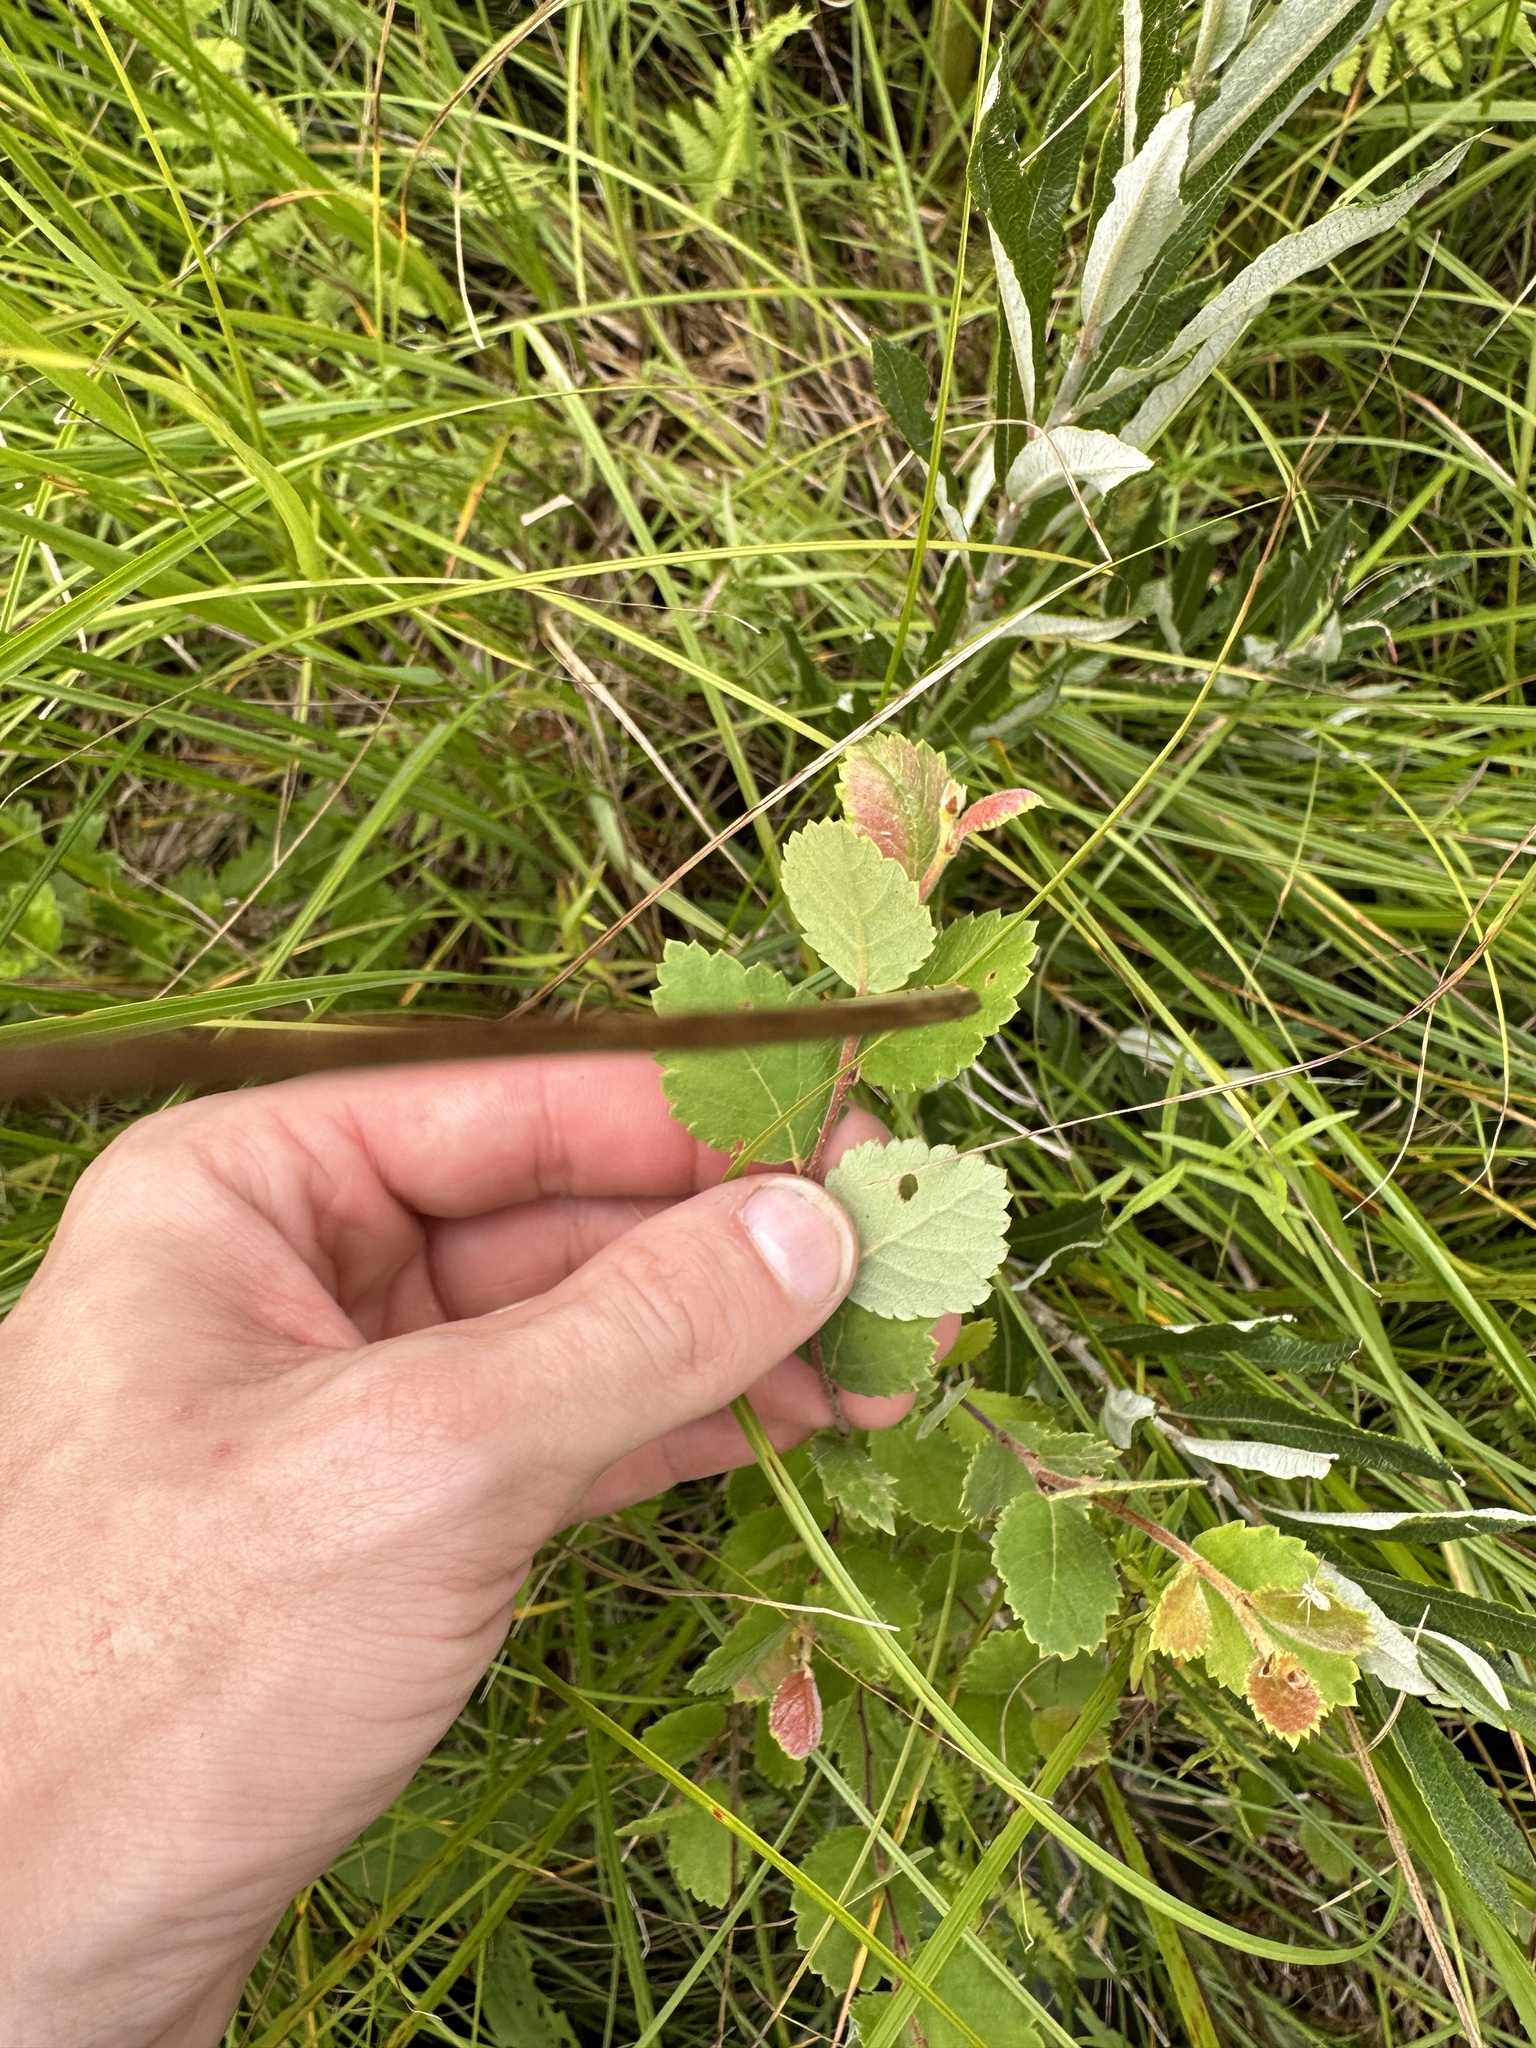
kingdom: Plantae
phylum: Tracheophyta
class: Magnoliopsida
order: Fagales
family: Betulaceae
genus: Betula
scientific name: Betula pumila
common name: Bog birch
